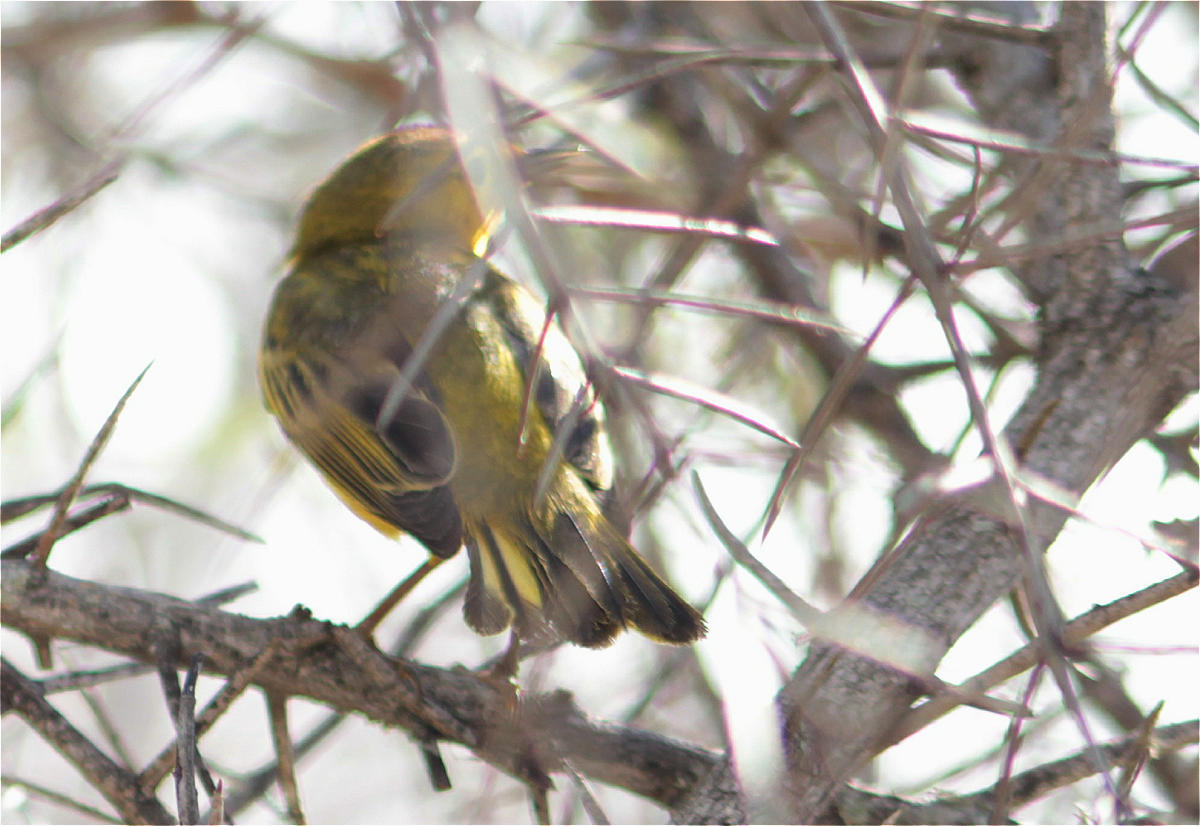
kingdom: Animalia
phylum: Chordata
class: Aves
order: Passeriformes
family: Parulidae
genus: Setophaga
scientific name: Setophaga petechia
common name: Yellow warbler
